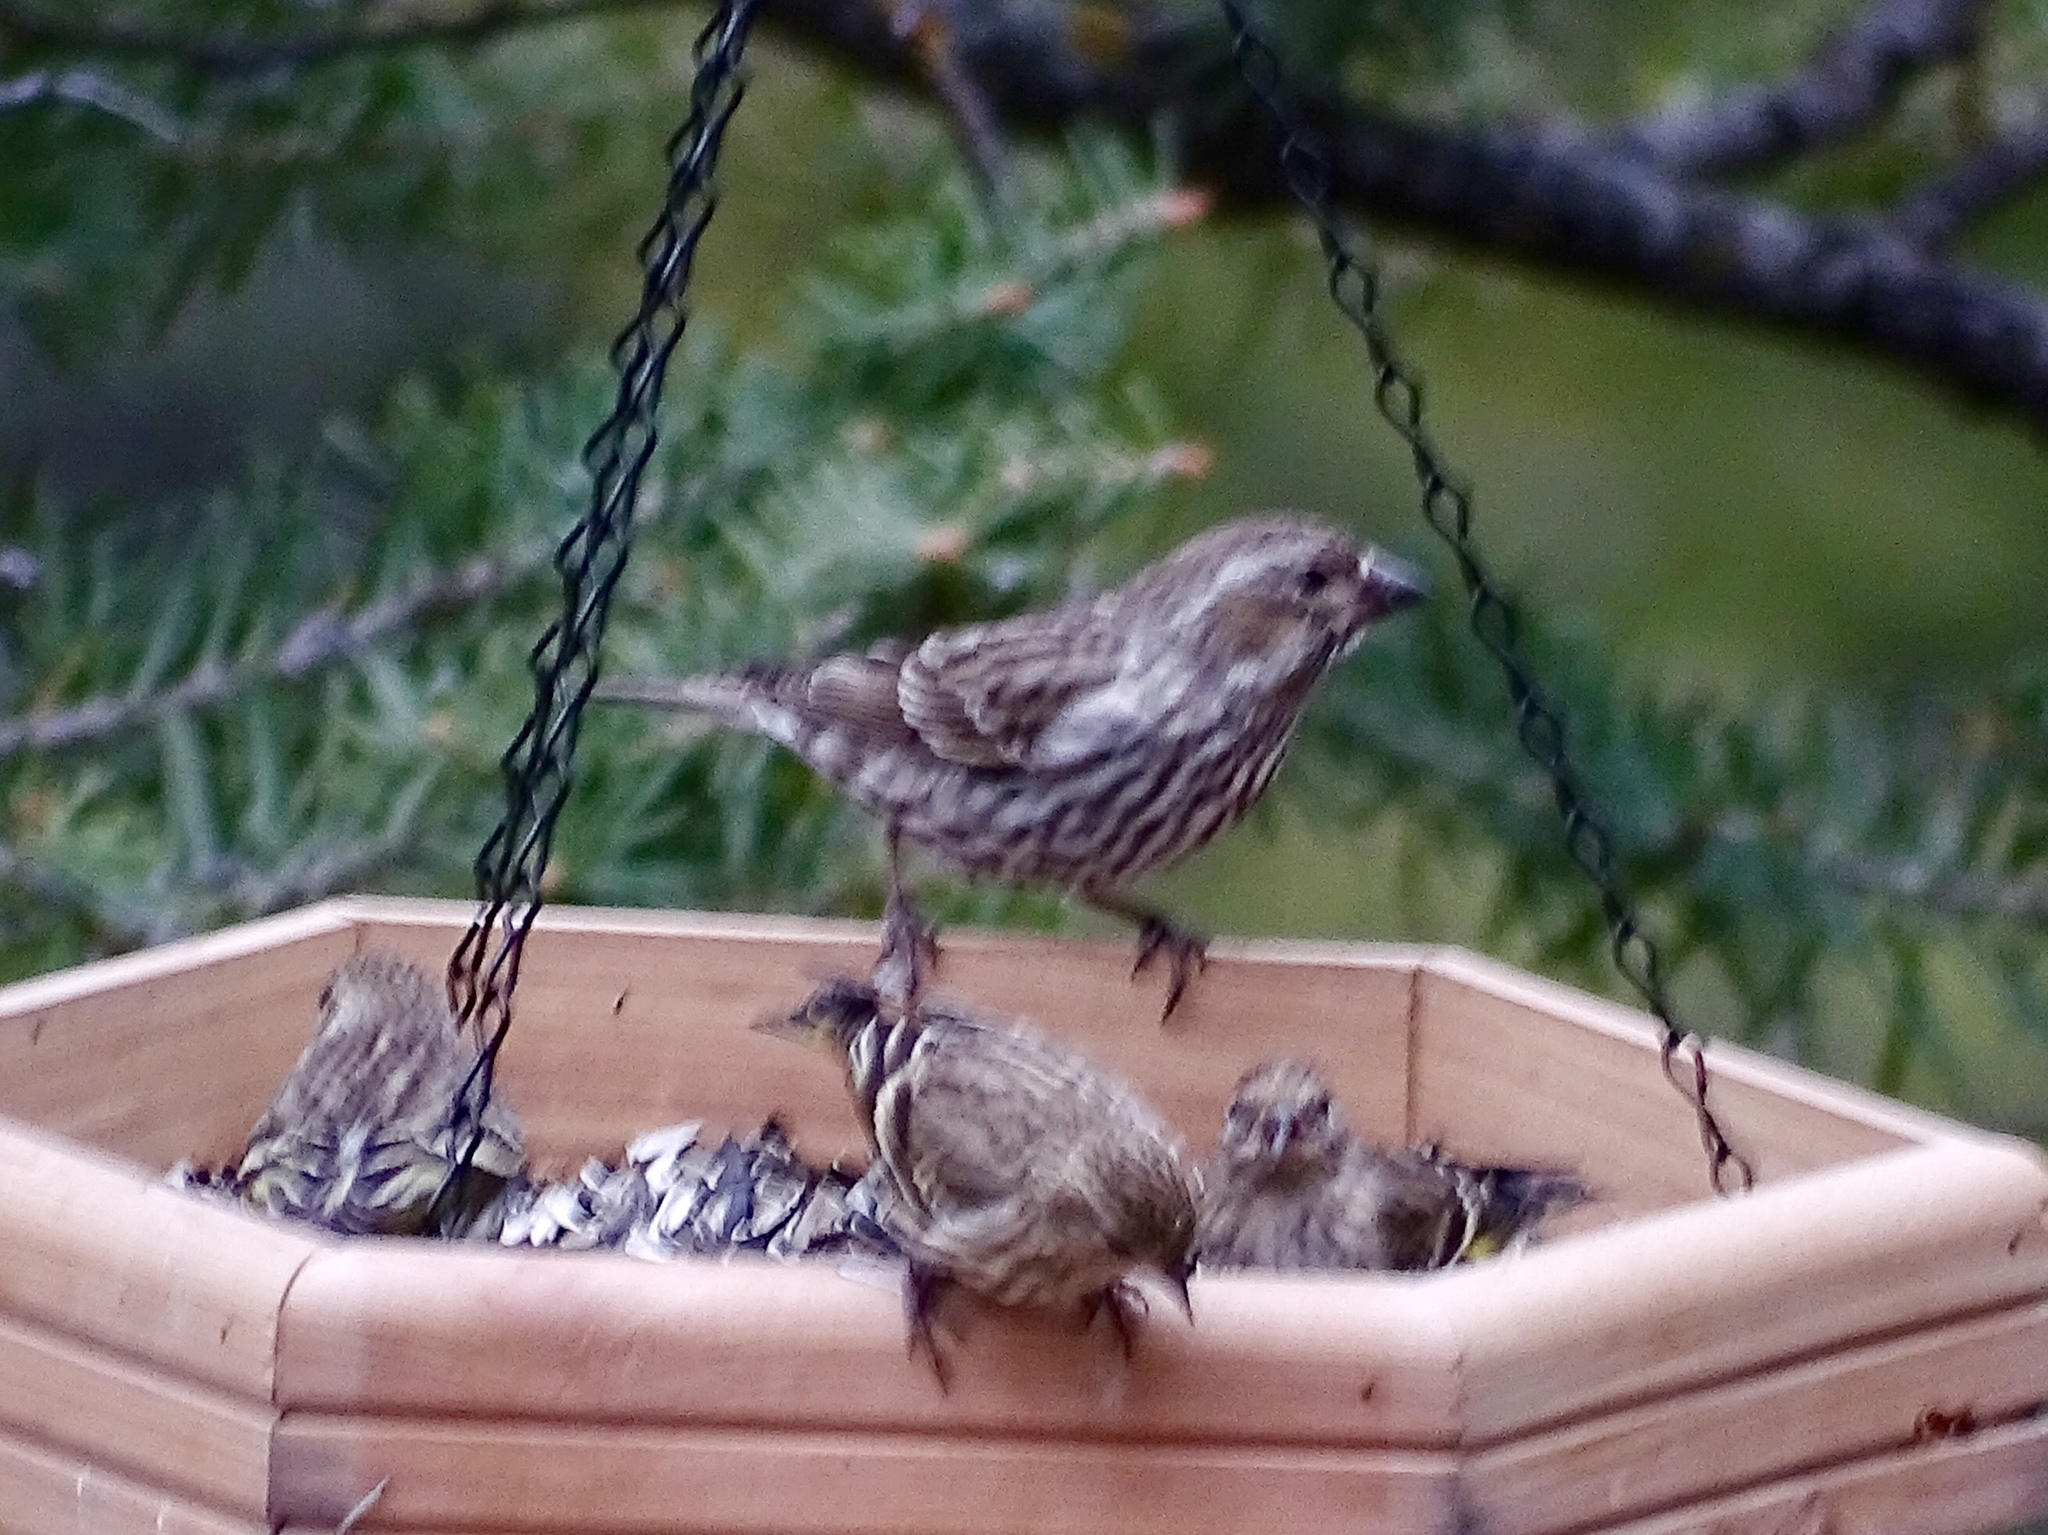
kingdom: Animalia
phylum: Chordata
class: Aves
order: Passeriformes
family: Fringillidae
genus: Haemorhous
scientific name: Haemorhous cassinii
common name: Cassin's finch
